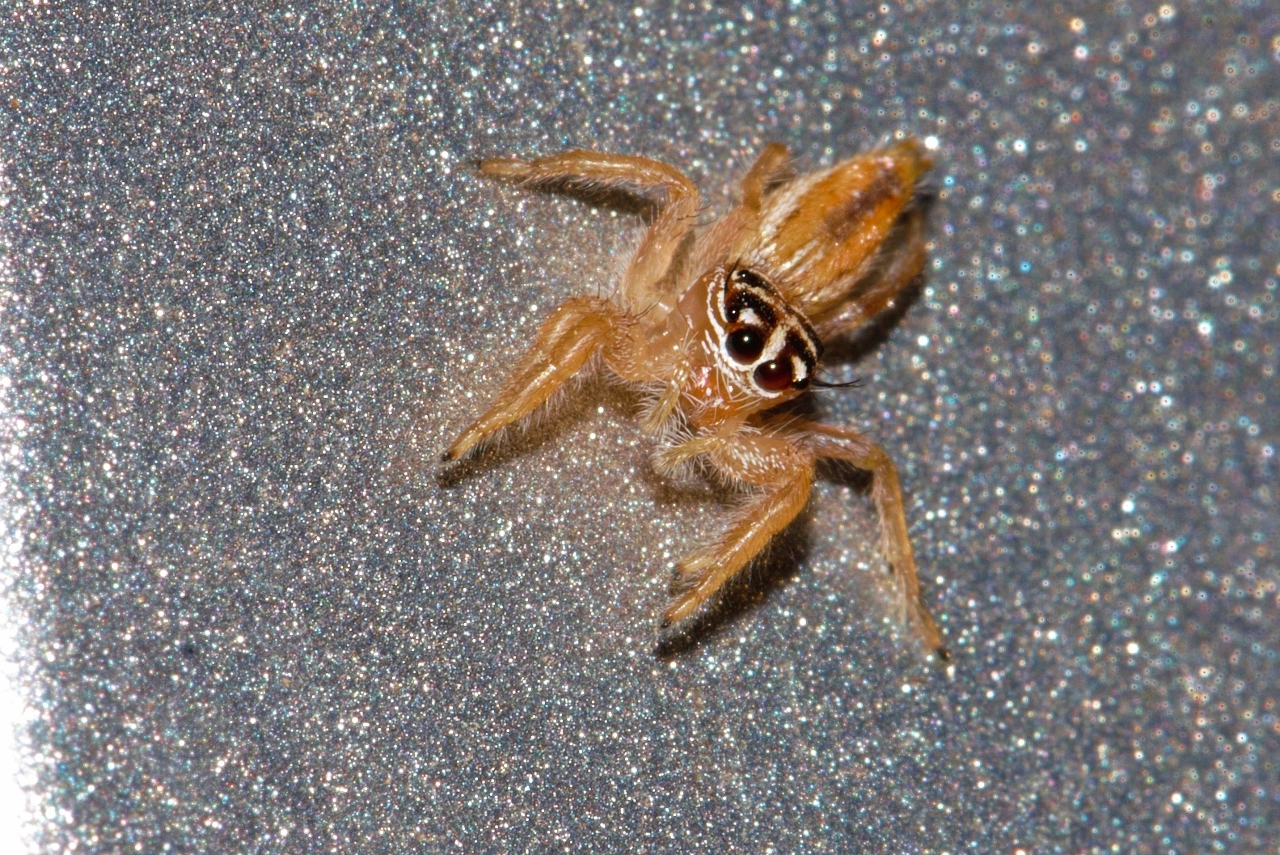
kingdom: Animalia
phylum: Arthropoda
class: Arachnida
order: Araneae
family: Salticidae
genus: Thyene
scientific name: Thyene inflata
